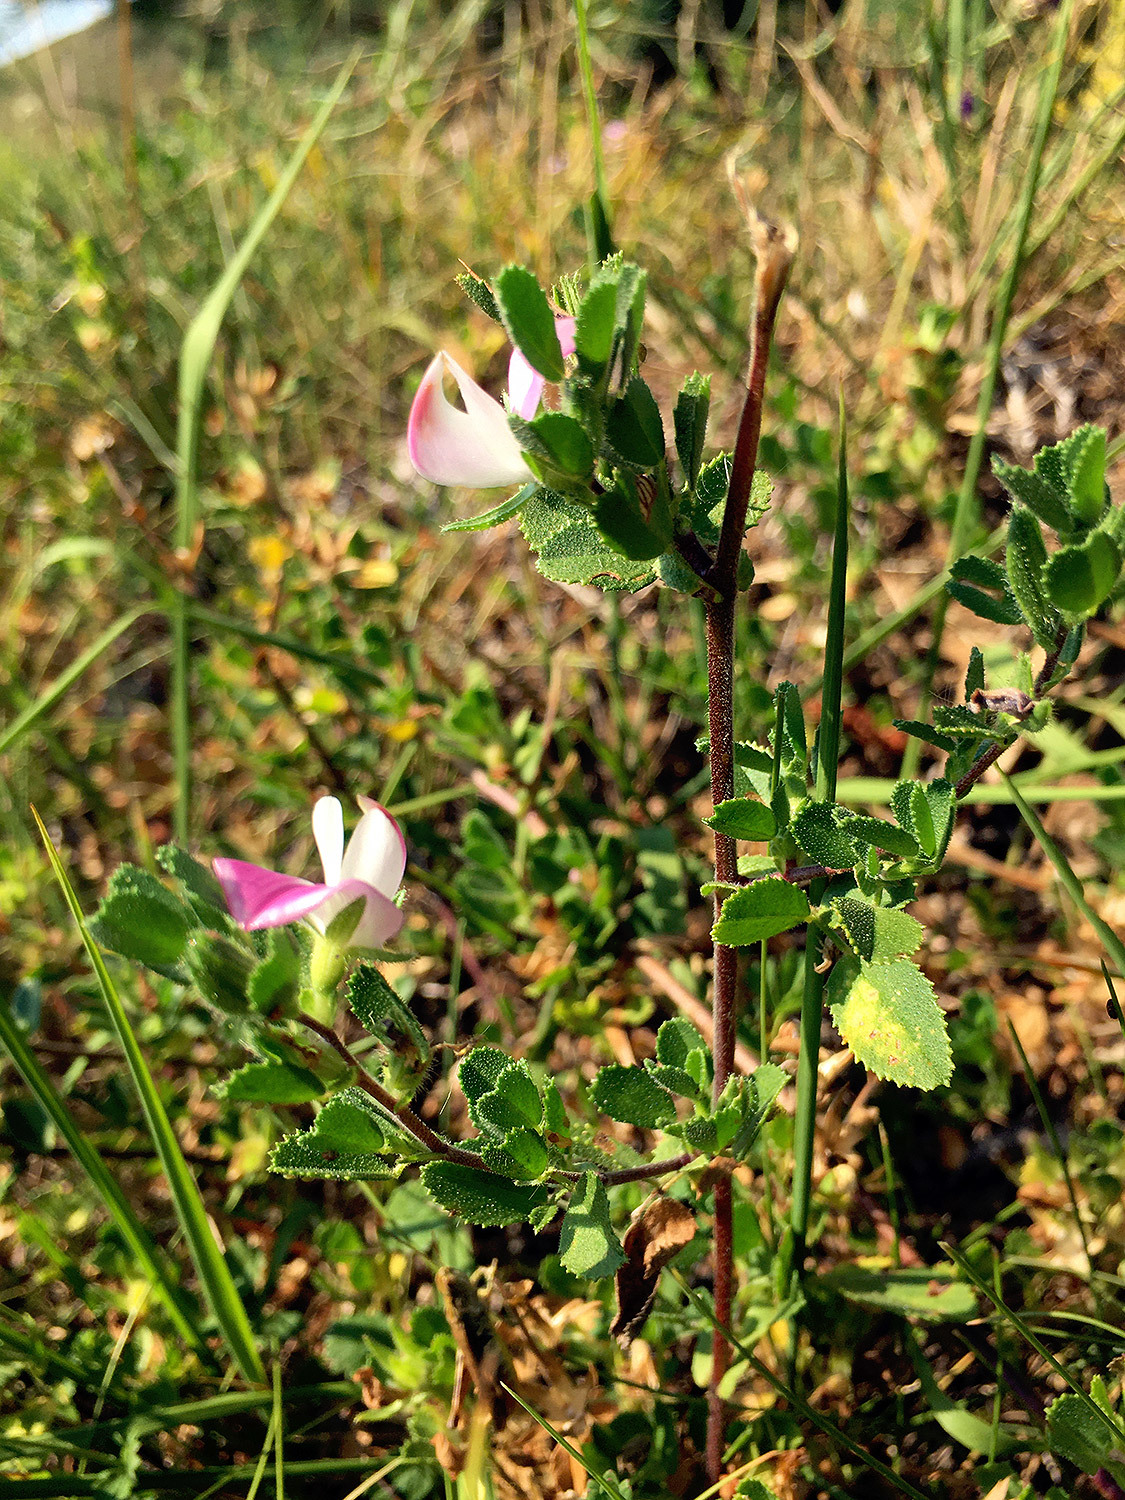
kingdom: Plantae
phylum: Tracheophyta
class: Magnoliopsida
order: Fabales
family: Fabaceae
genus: Ononis
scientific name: Ononis spinosa
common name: Spiny restharrow
